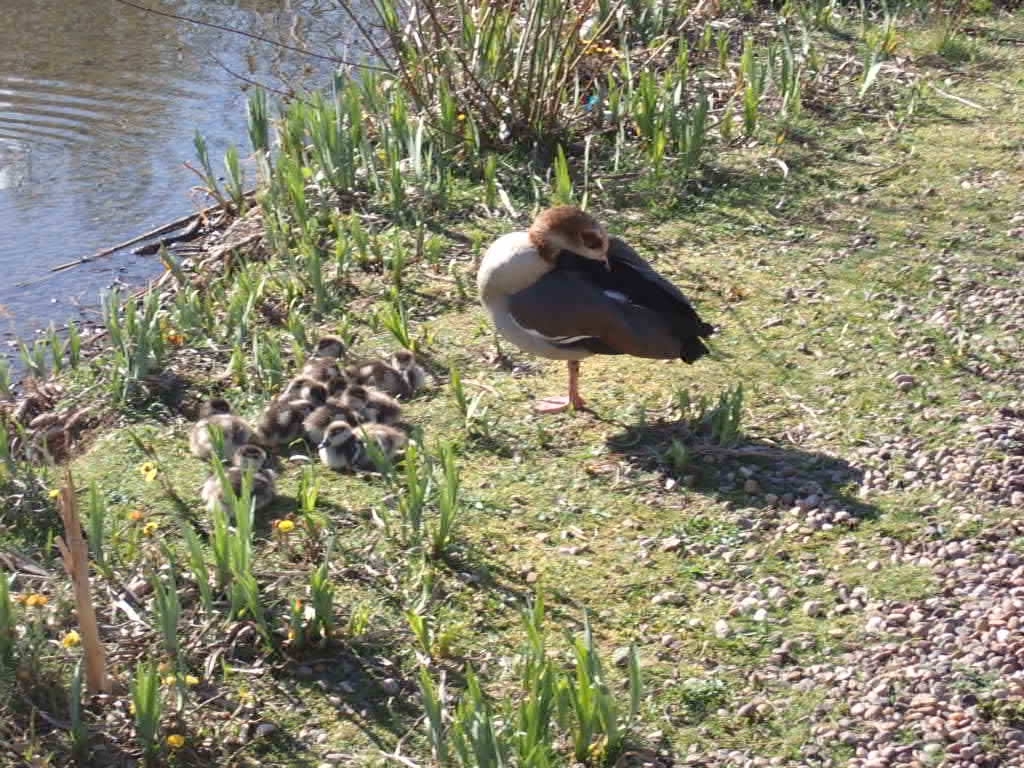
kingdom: Animalia
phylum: Chordata
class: Aves
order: Anseriformes
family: Anatidae
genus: Alopochen
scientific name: Alopochen aegyptiaca
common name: Egyptian goose
